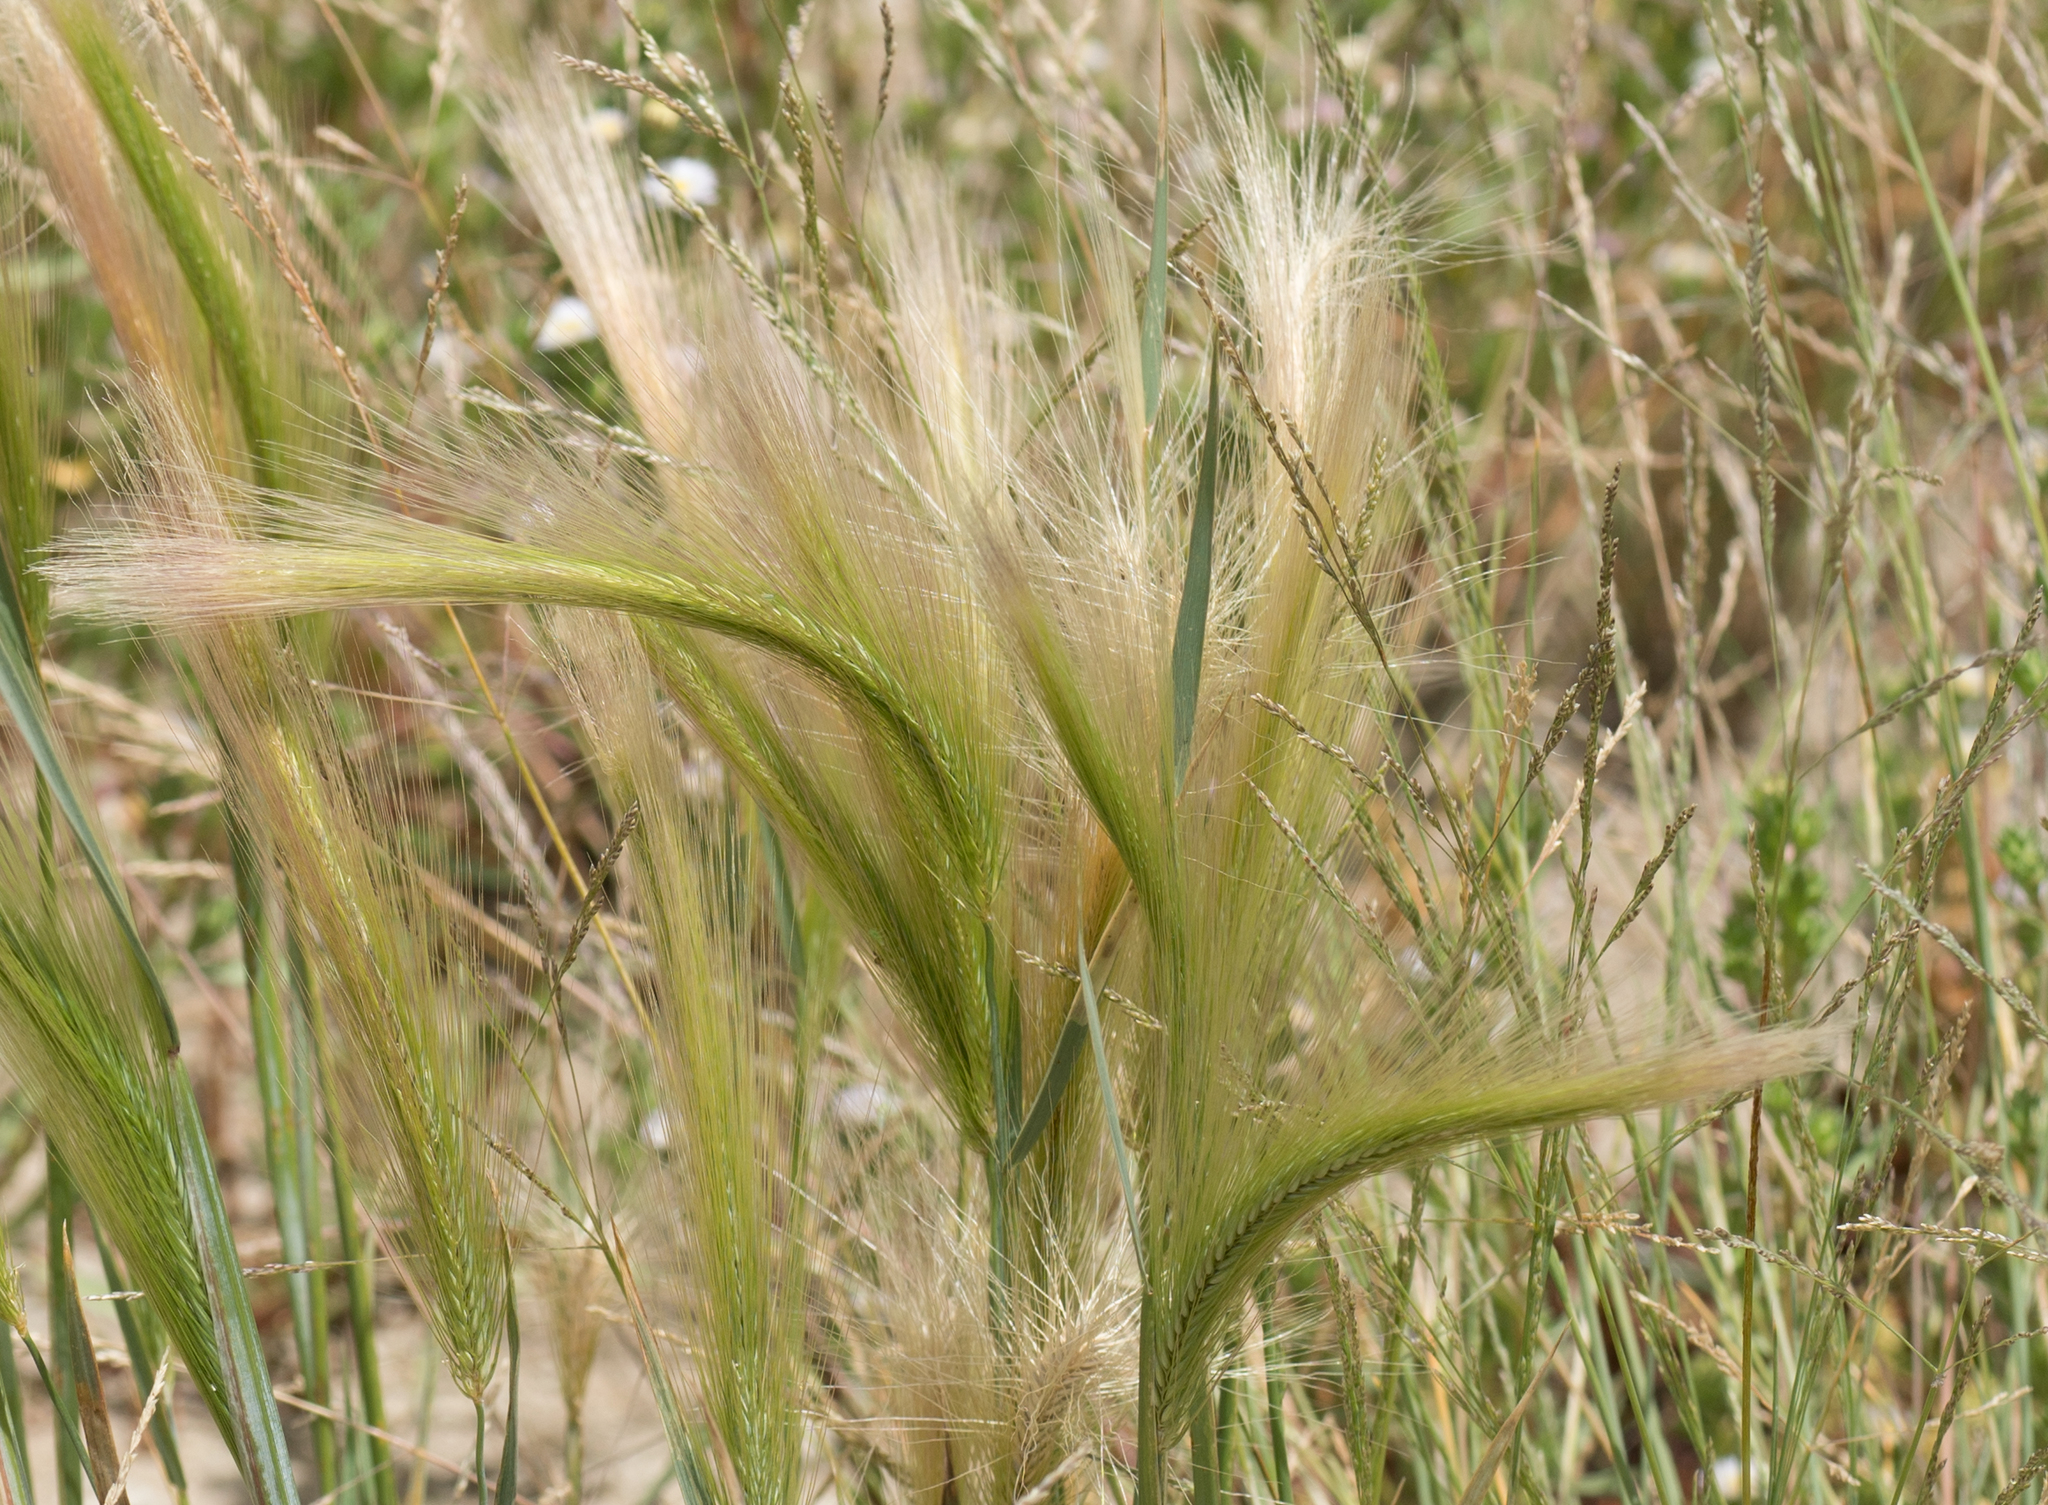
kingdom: Plantae
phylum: Tracheophyta
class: Liliopsida
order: Poales
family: Poaceae
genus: Hordeum
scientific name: Hordeum jubatum
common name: Foxtail barley
